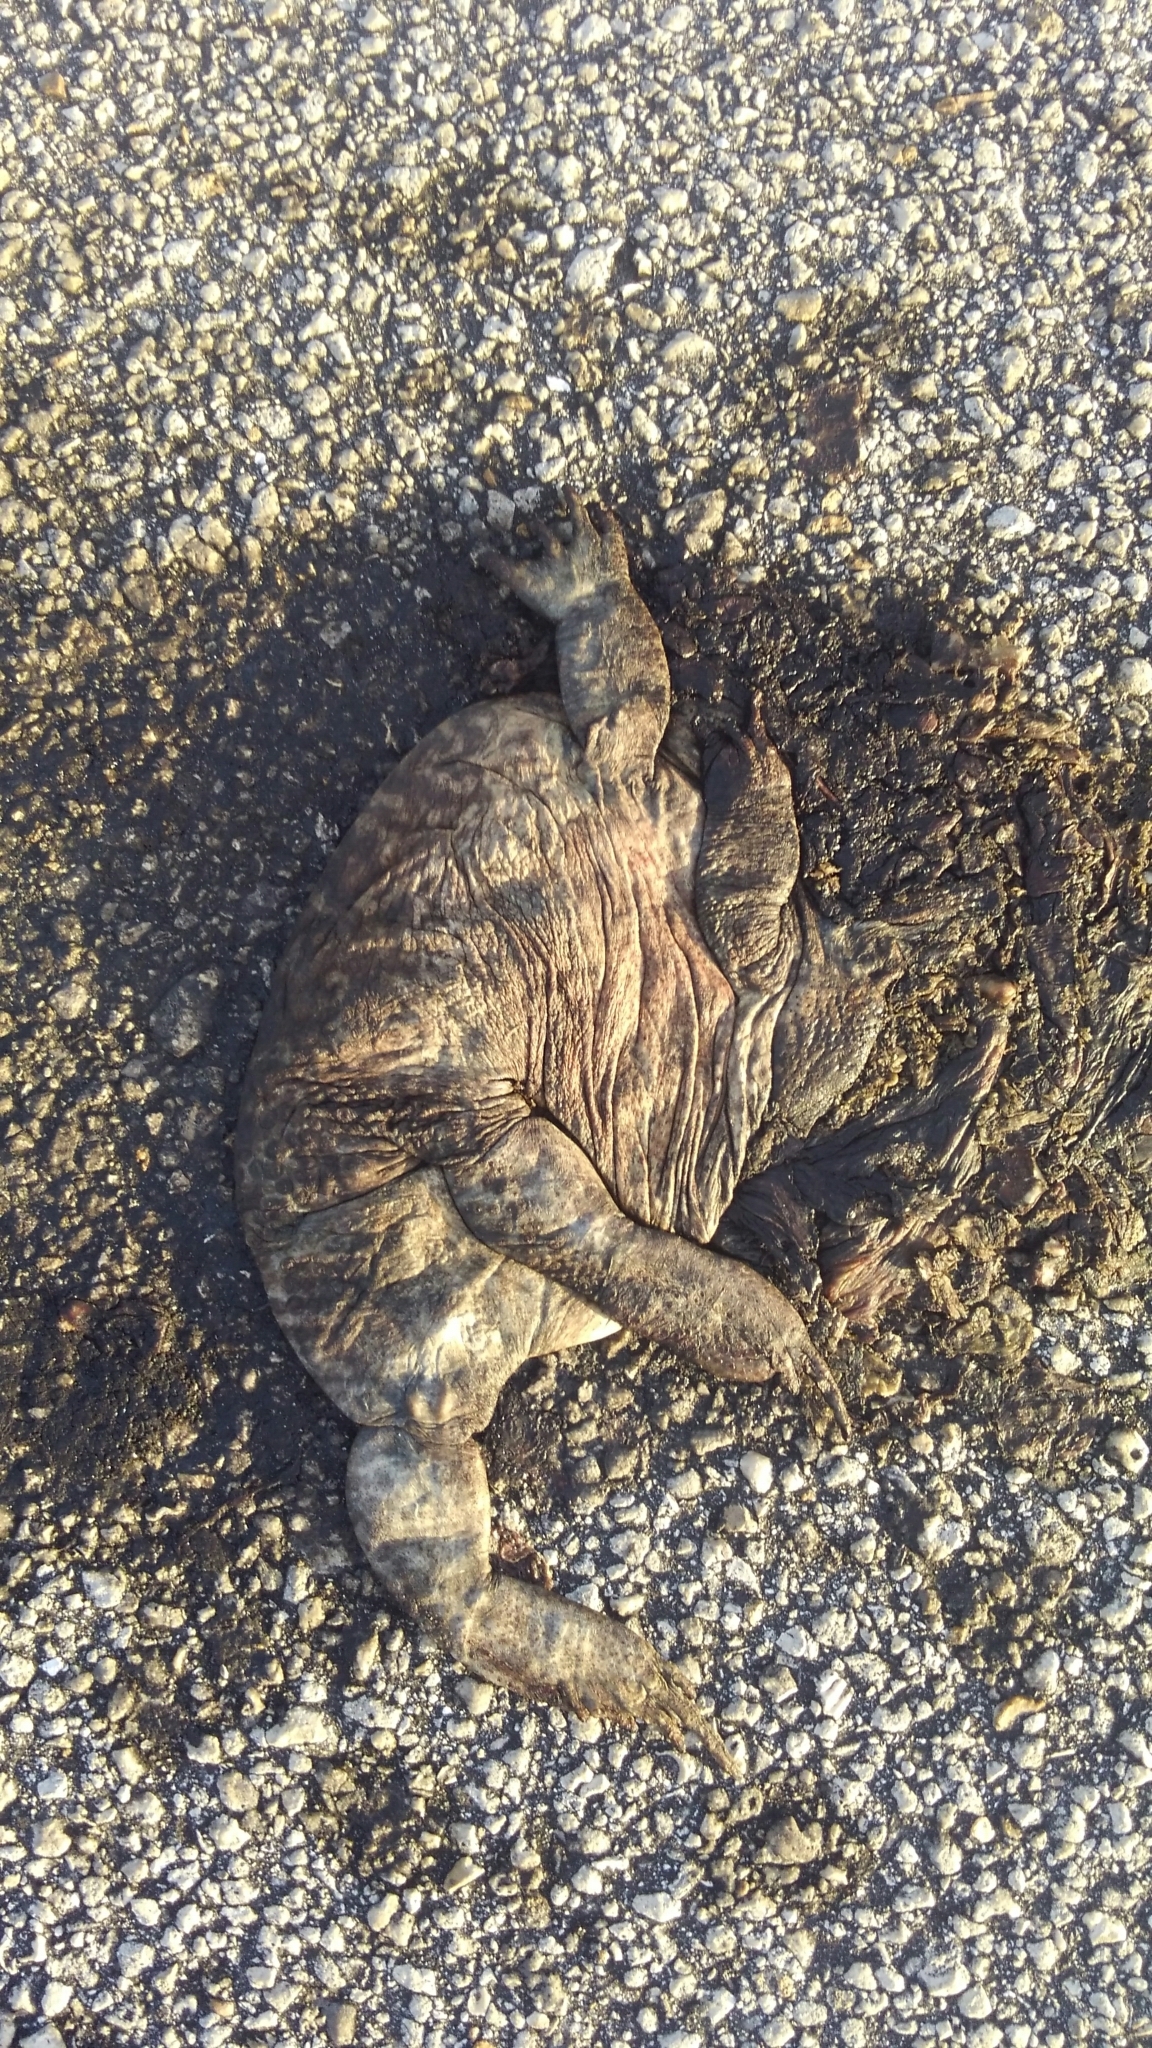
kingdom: Animalia
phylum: Chordata
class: Amphibia
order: Anura
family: Bufonidae
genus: Rhinella
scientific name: Rhinella marina
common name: Cane toad
